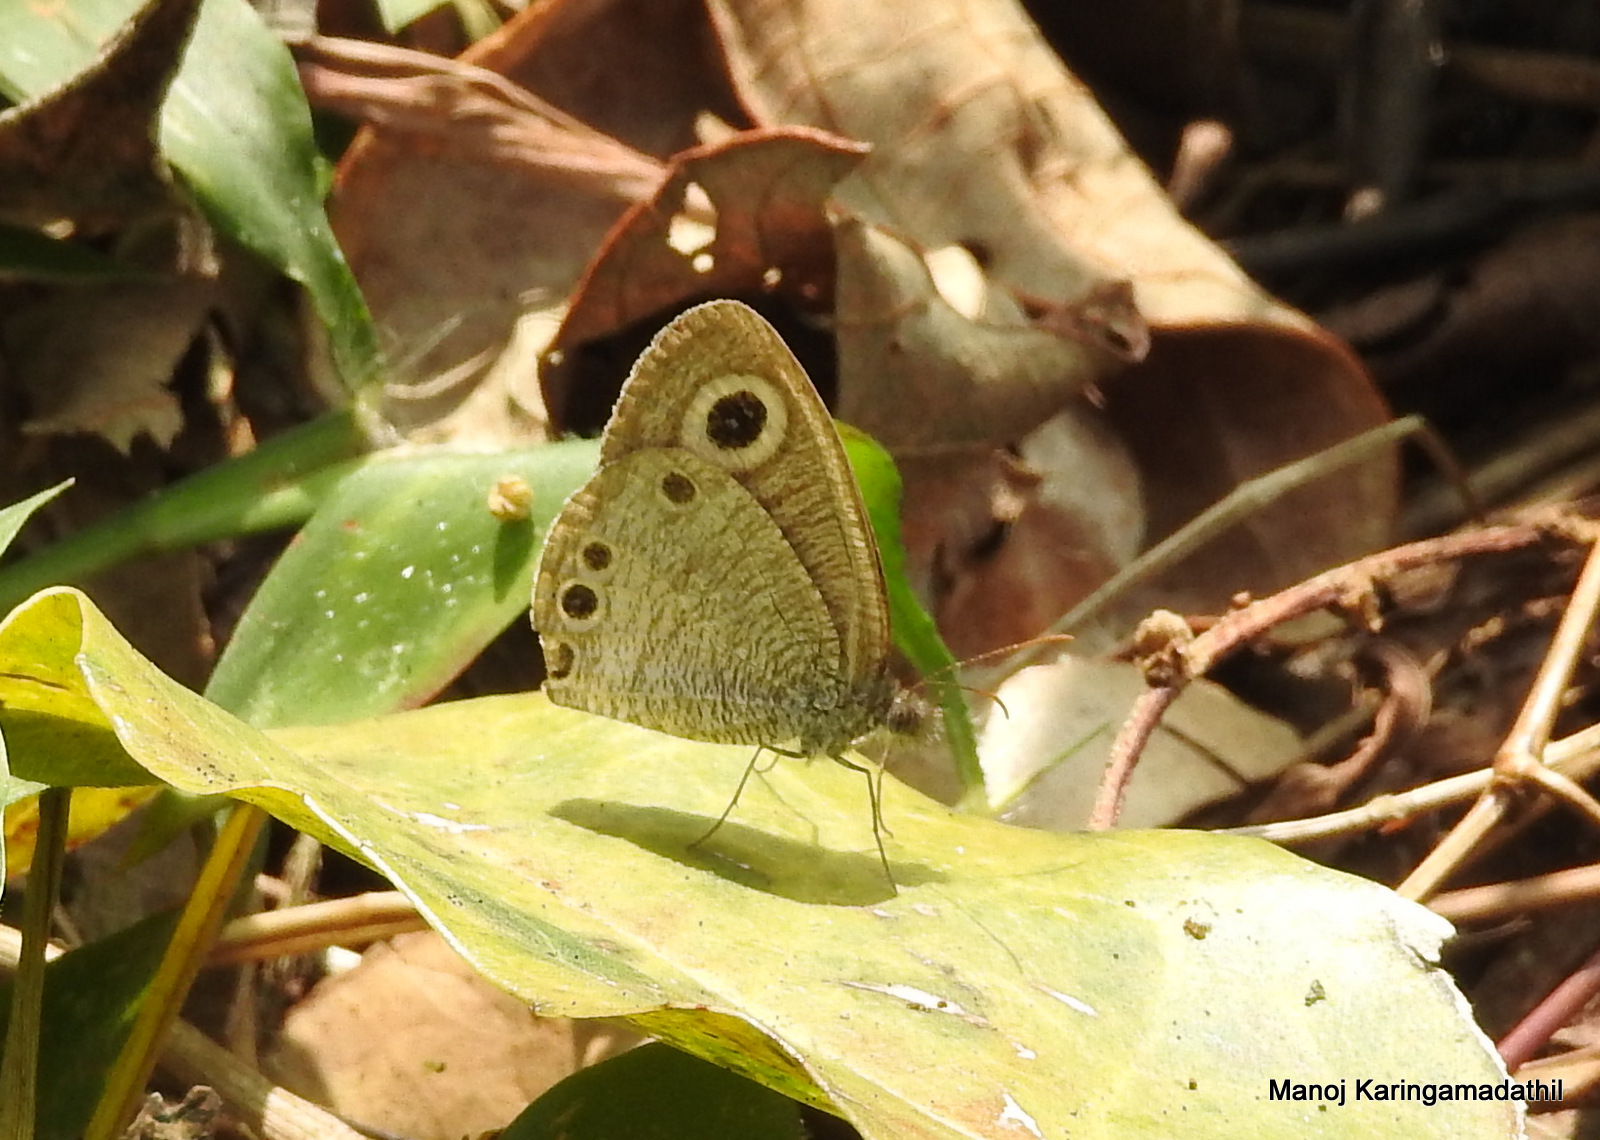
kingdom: Animalia
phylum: Arthropoda
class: Insecta
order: Lepidoptera
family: Nymphalidae
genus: Ypthima
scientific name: Ypthima huebneri
